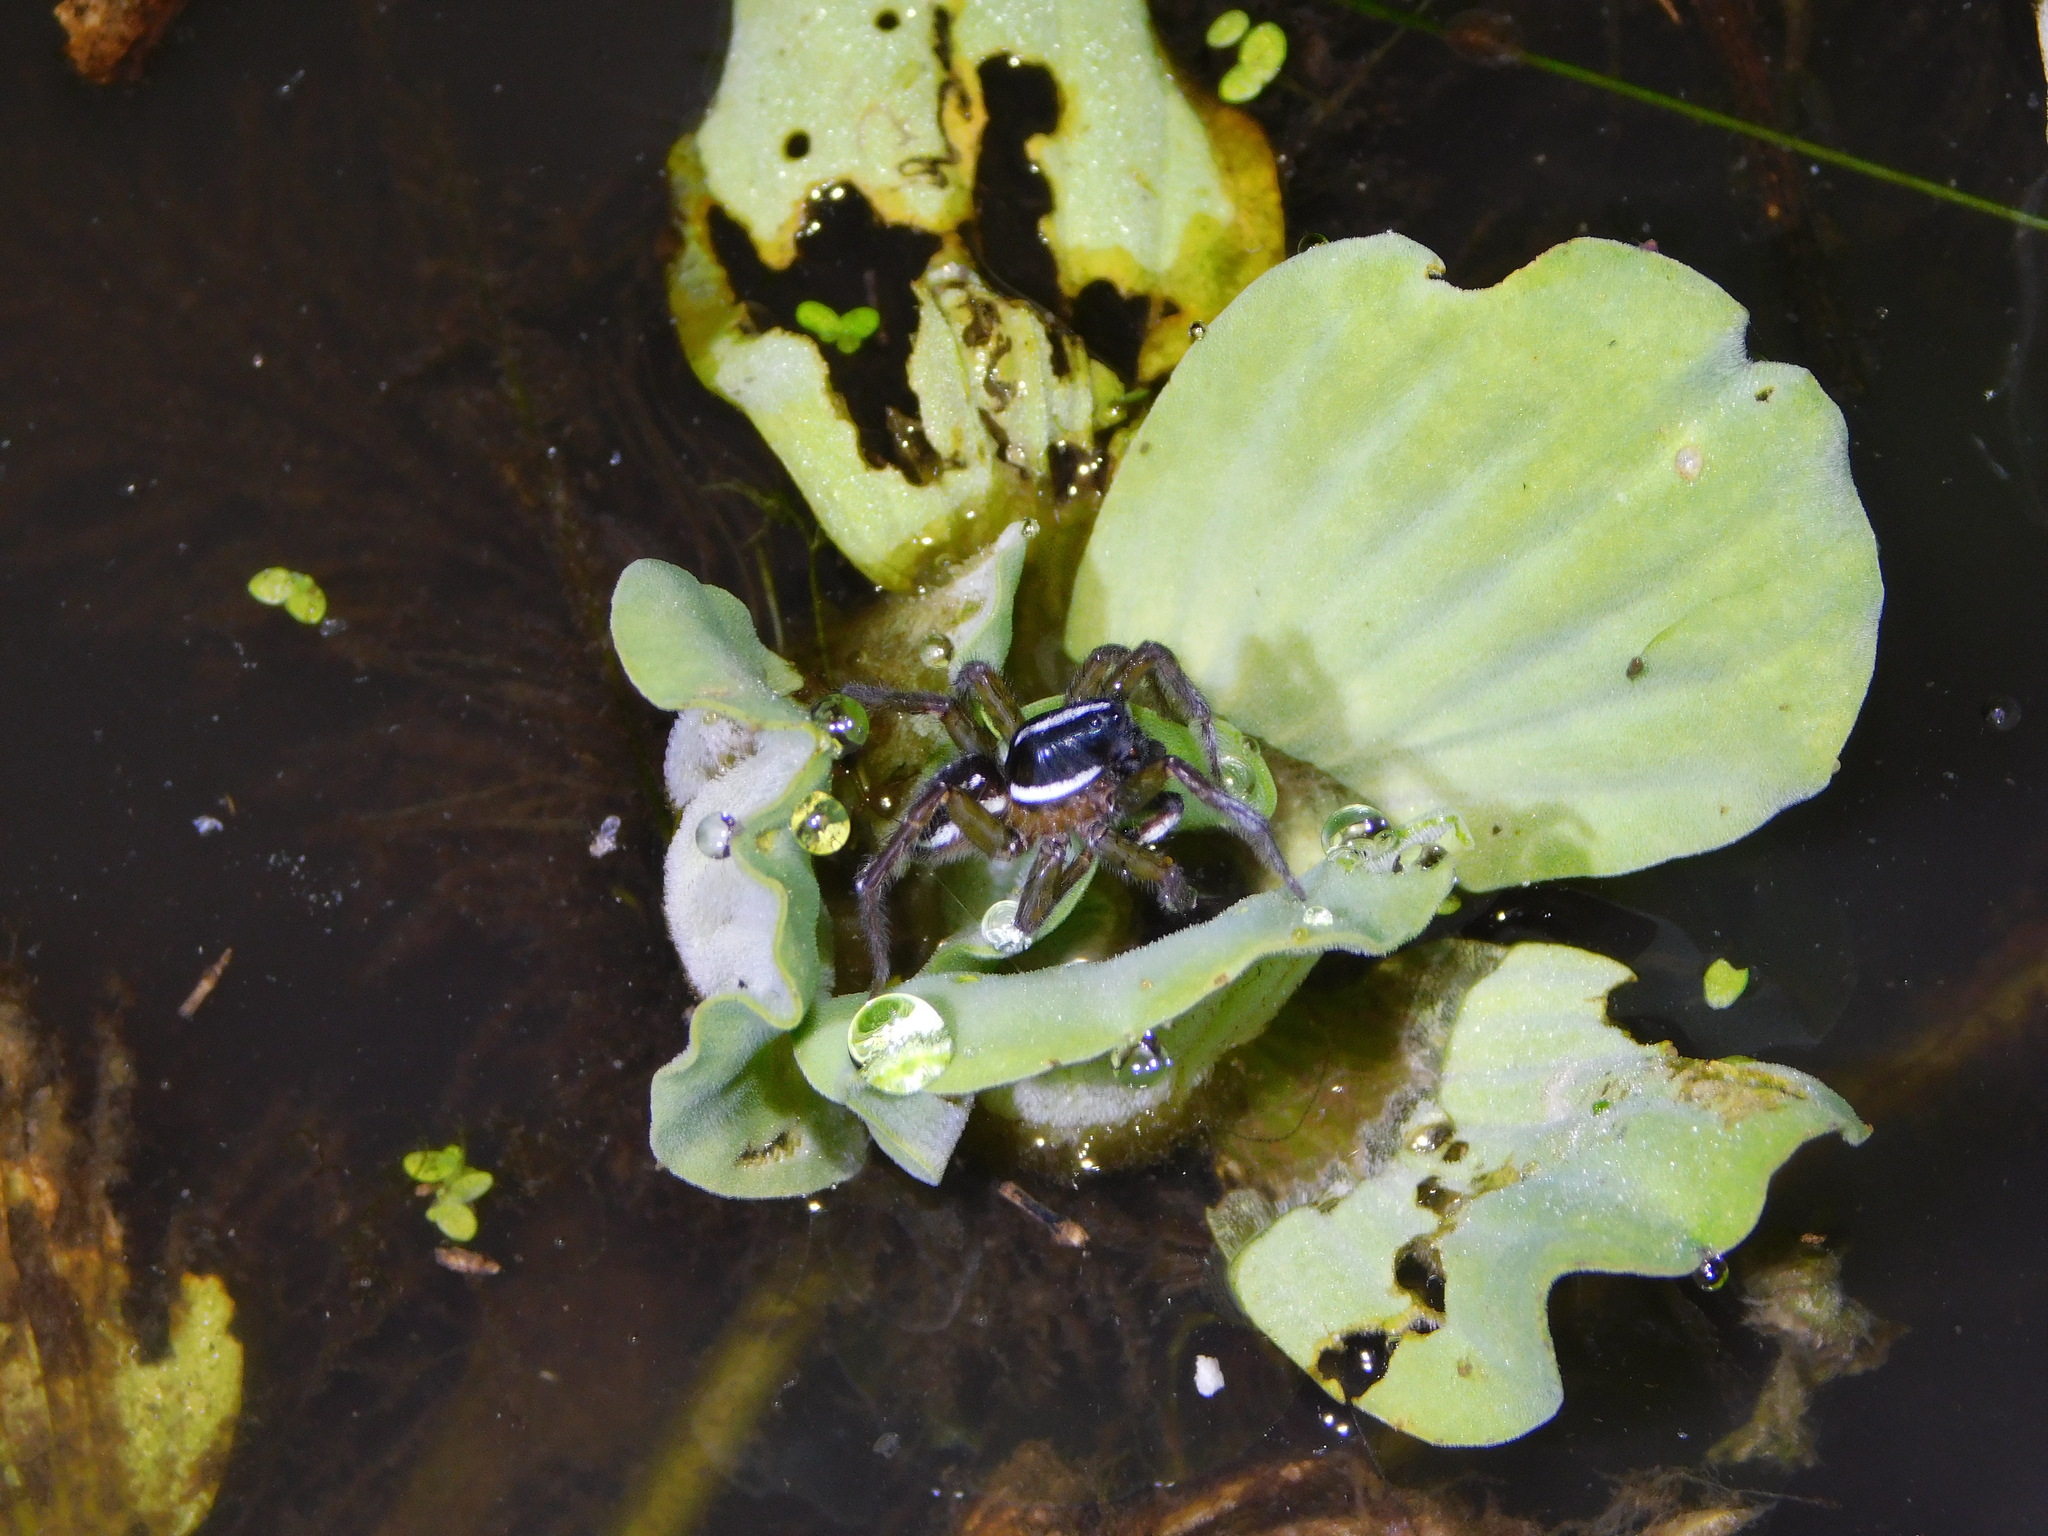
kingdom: Animalia
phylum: Arthropoda
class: Arachnida
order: Araneae
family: Lycosidae
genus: Allocosa
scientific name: Allocosa paraguayensis
